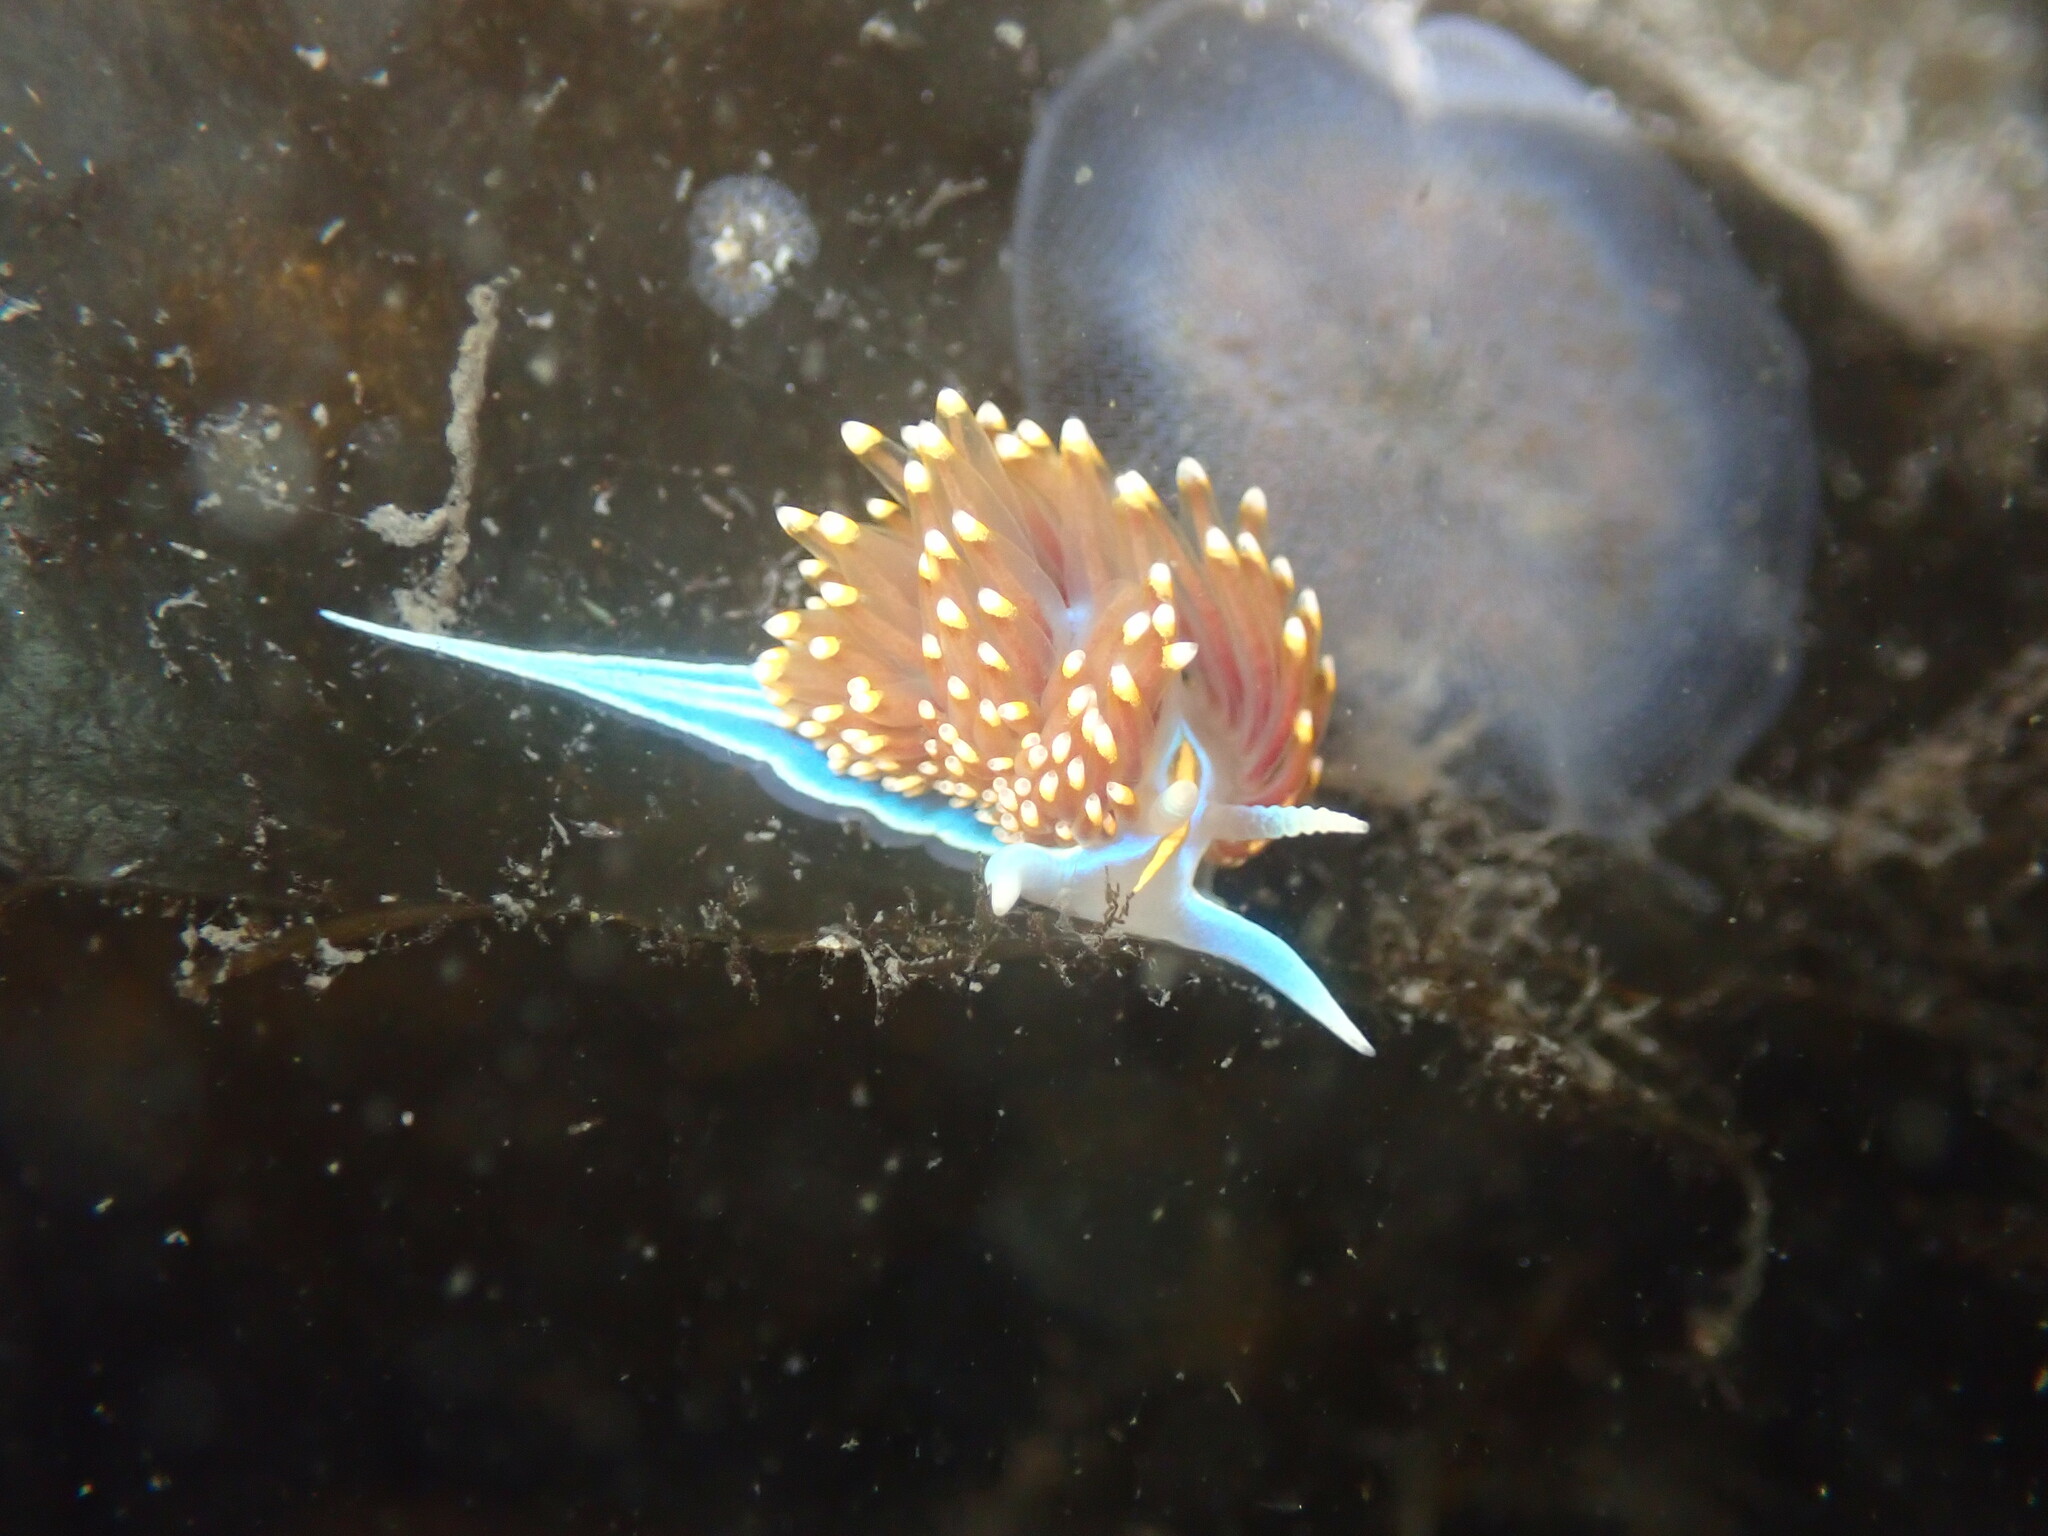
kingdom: Animalia
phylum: Mollusca
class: Gastropoda
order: Nudibranchia
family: Myrrhinidae
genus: Hermissenda
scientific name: Hermissenda opalescens
